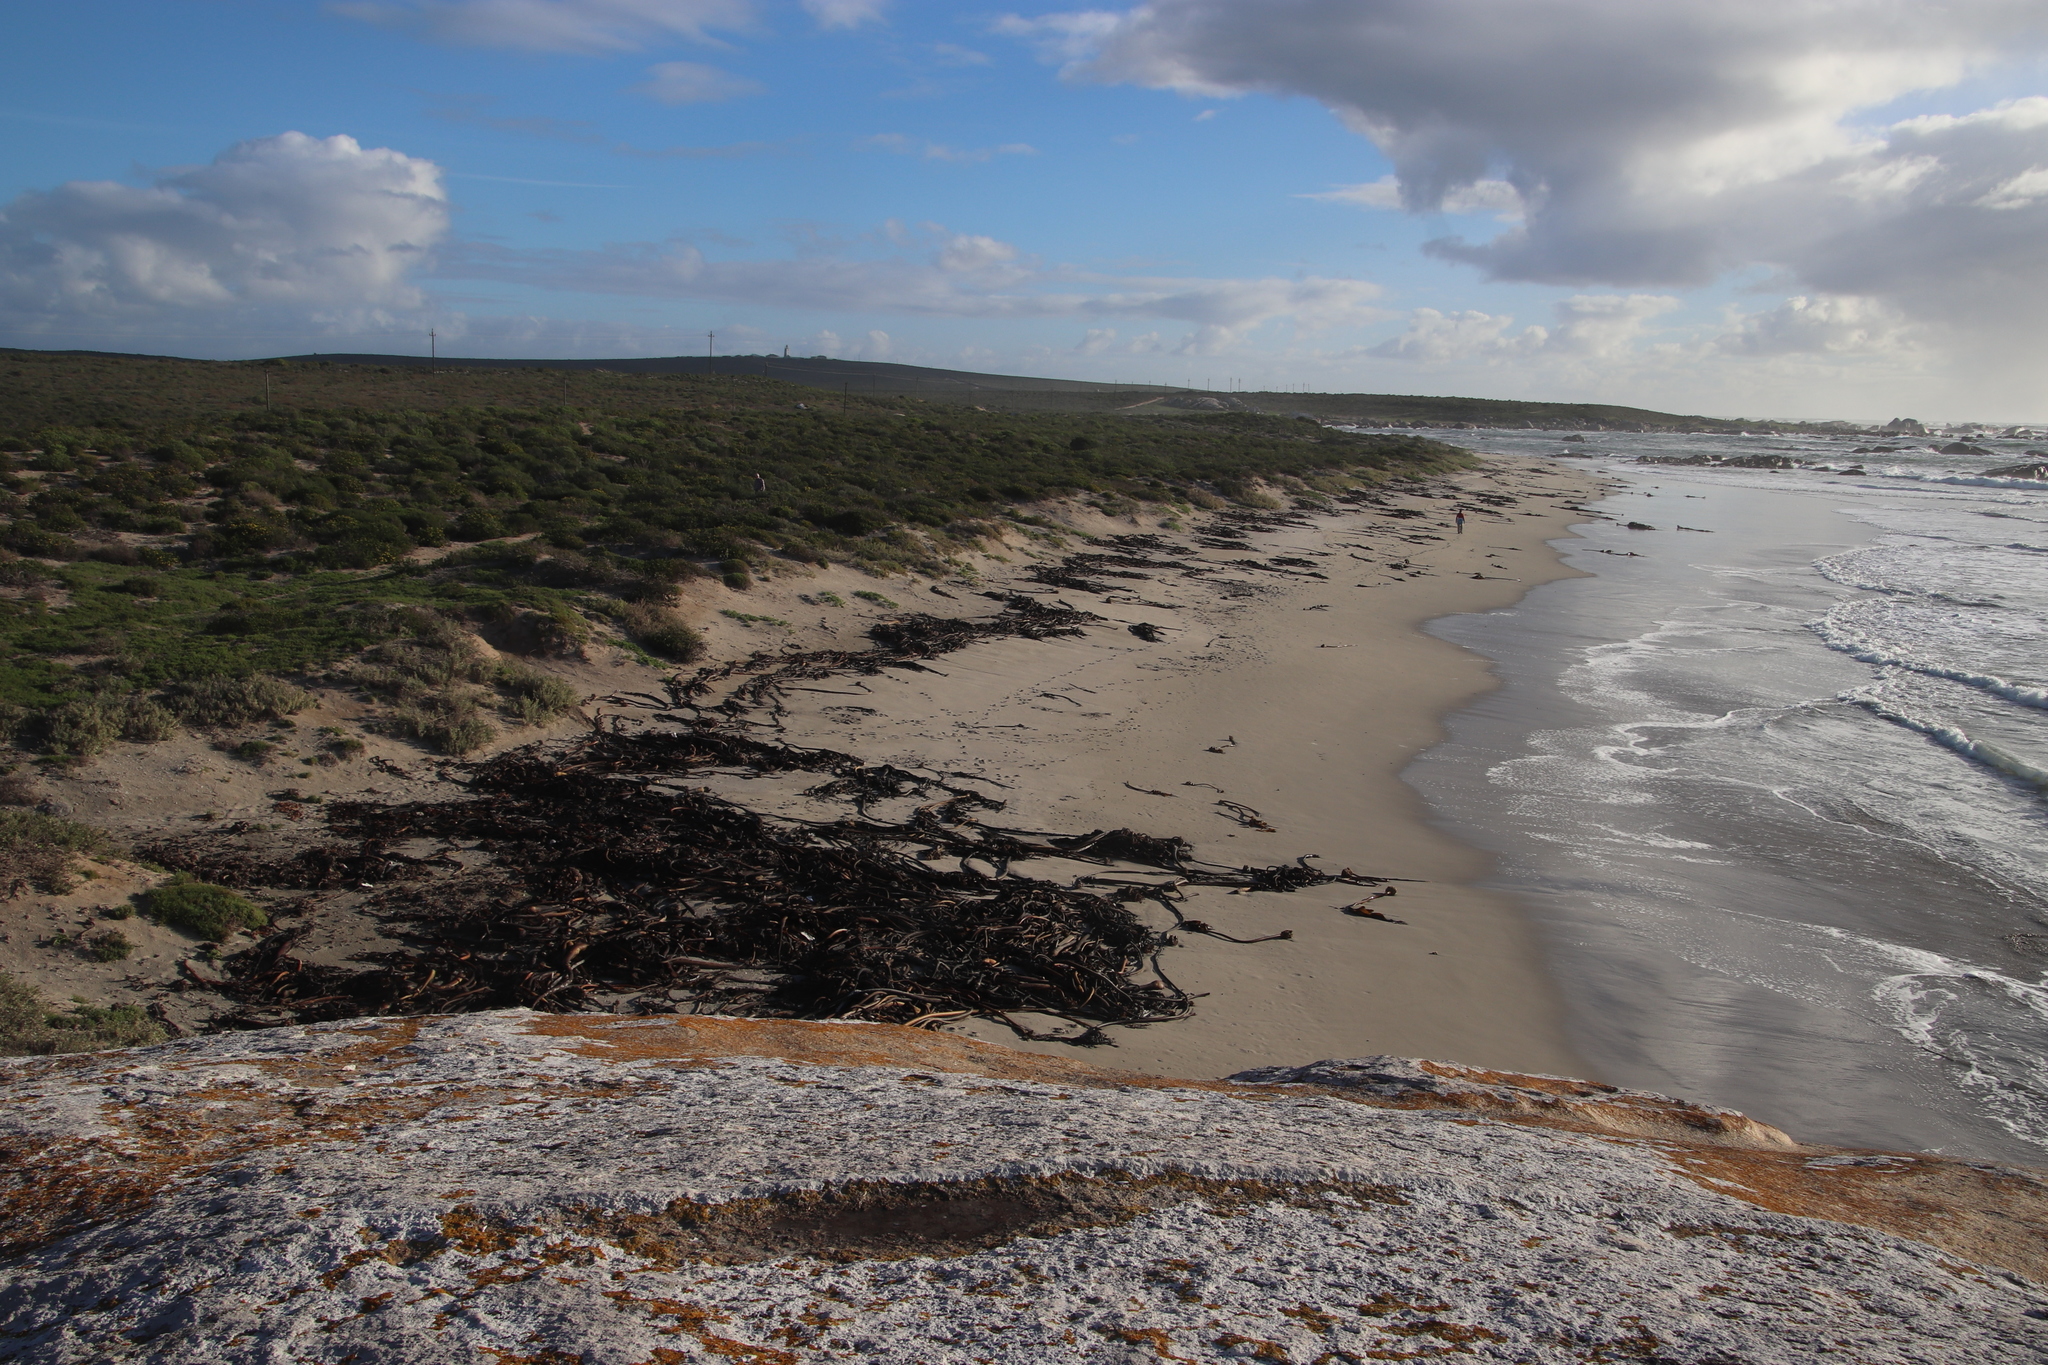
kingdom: Chromista
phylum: Ochrophyta
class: Phaeophyceae
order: Laminariales
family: Lessoniaceae
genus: Ecklonia
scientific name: Ecklonia
